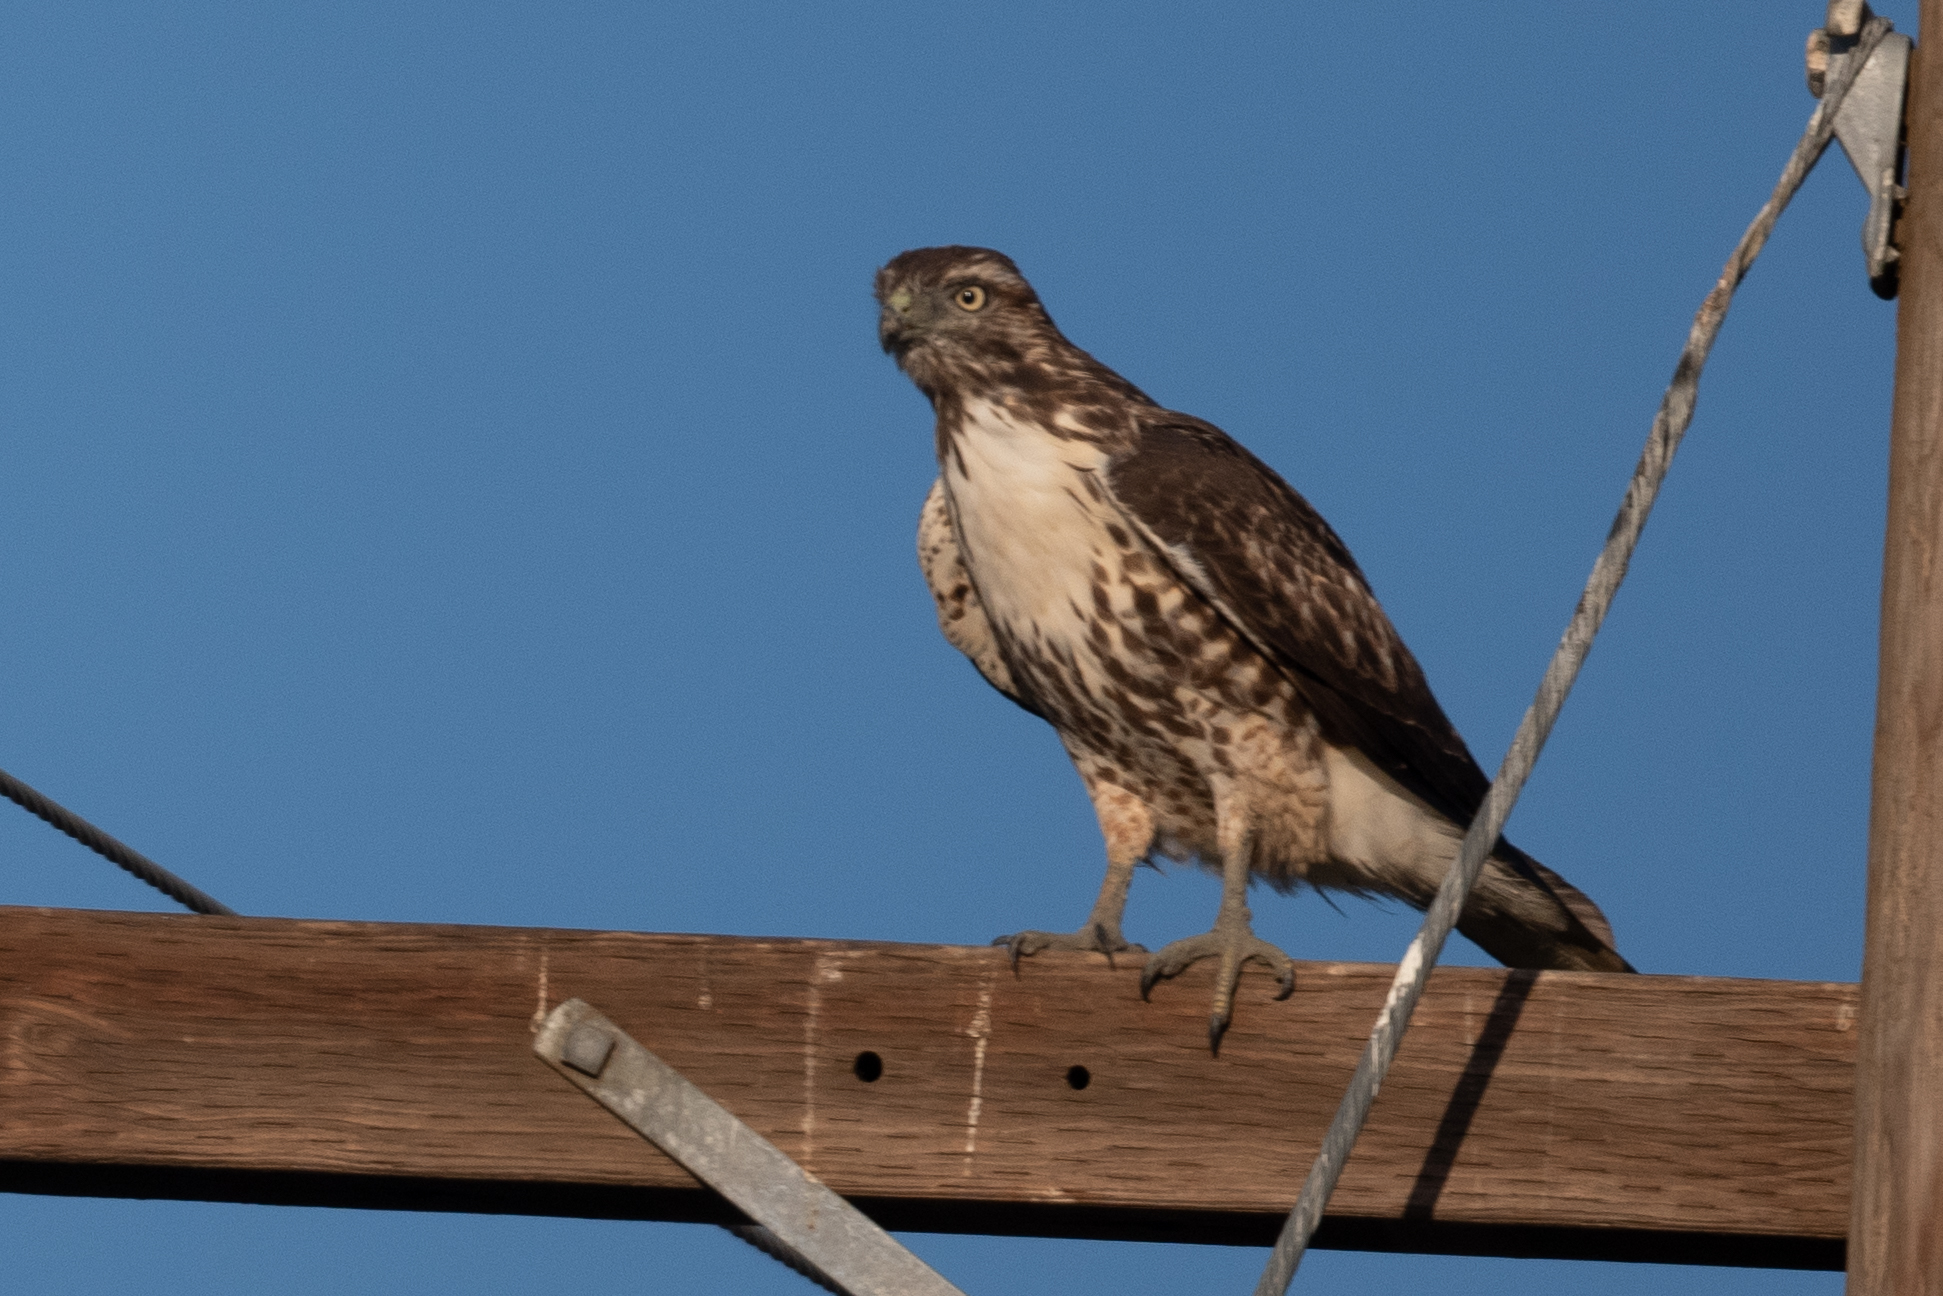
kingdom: Animalia
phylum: Chordata
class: Aves
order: Accipitriformes
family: Accipitridae
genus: Buteo
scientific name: Buteo jamaicensis
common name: Red-tailed hawk
